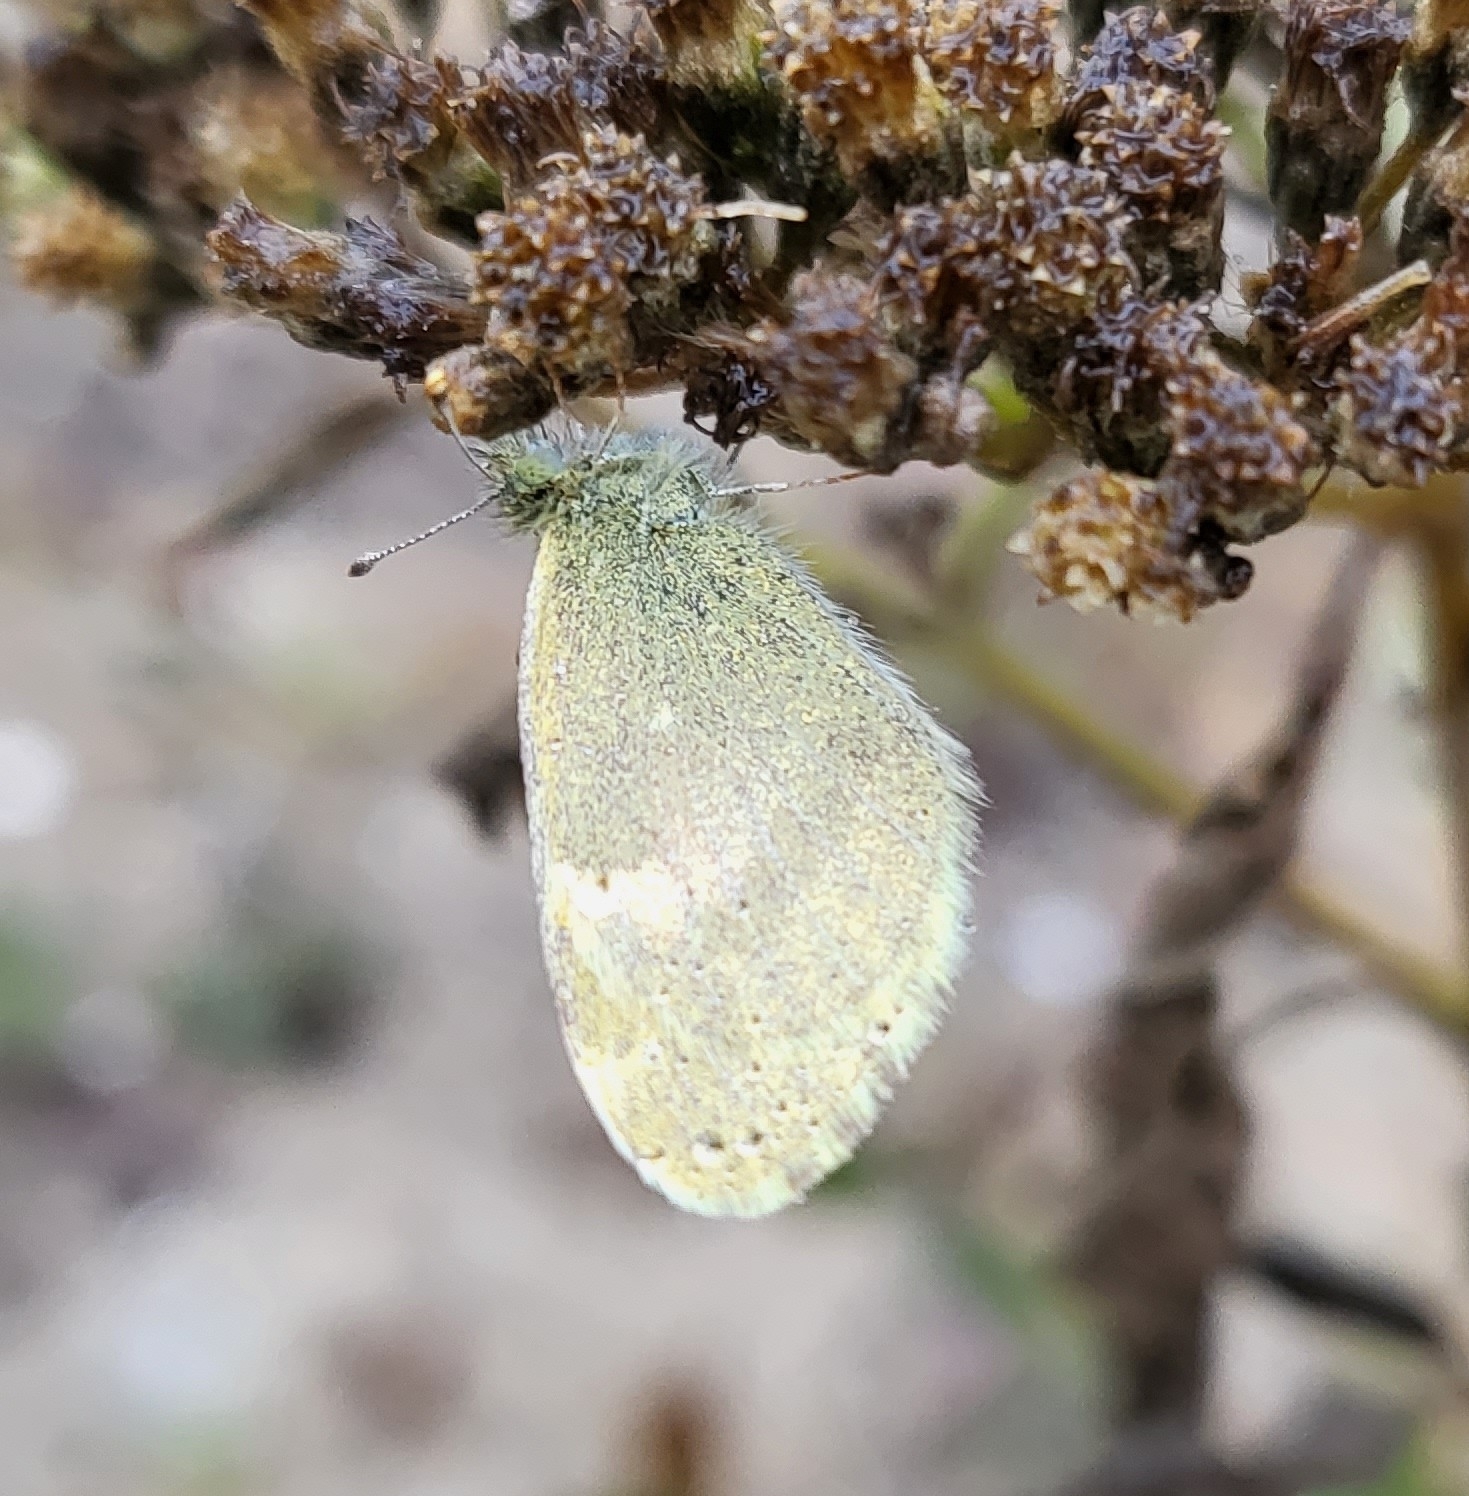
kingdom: Animalia
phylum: Arthropoda
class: Insecta
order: Lepidoptera
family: Pieridae
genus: Nathalis
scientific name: Nathalis iole
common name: Dainty sulphur
